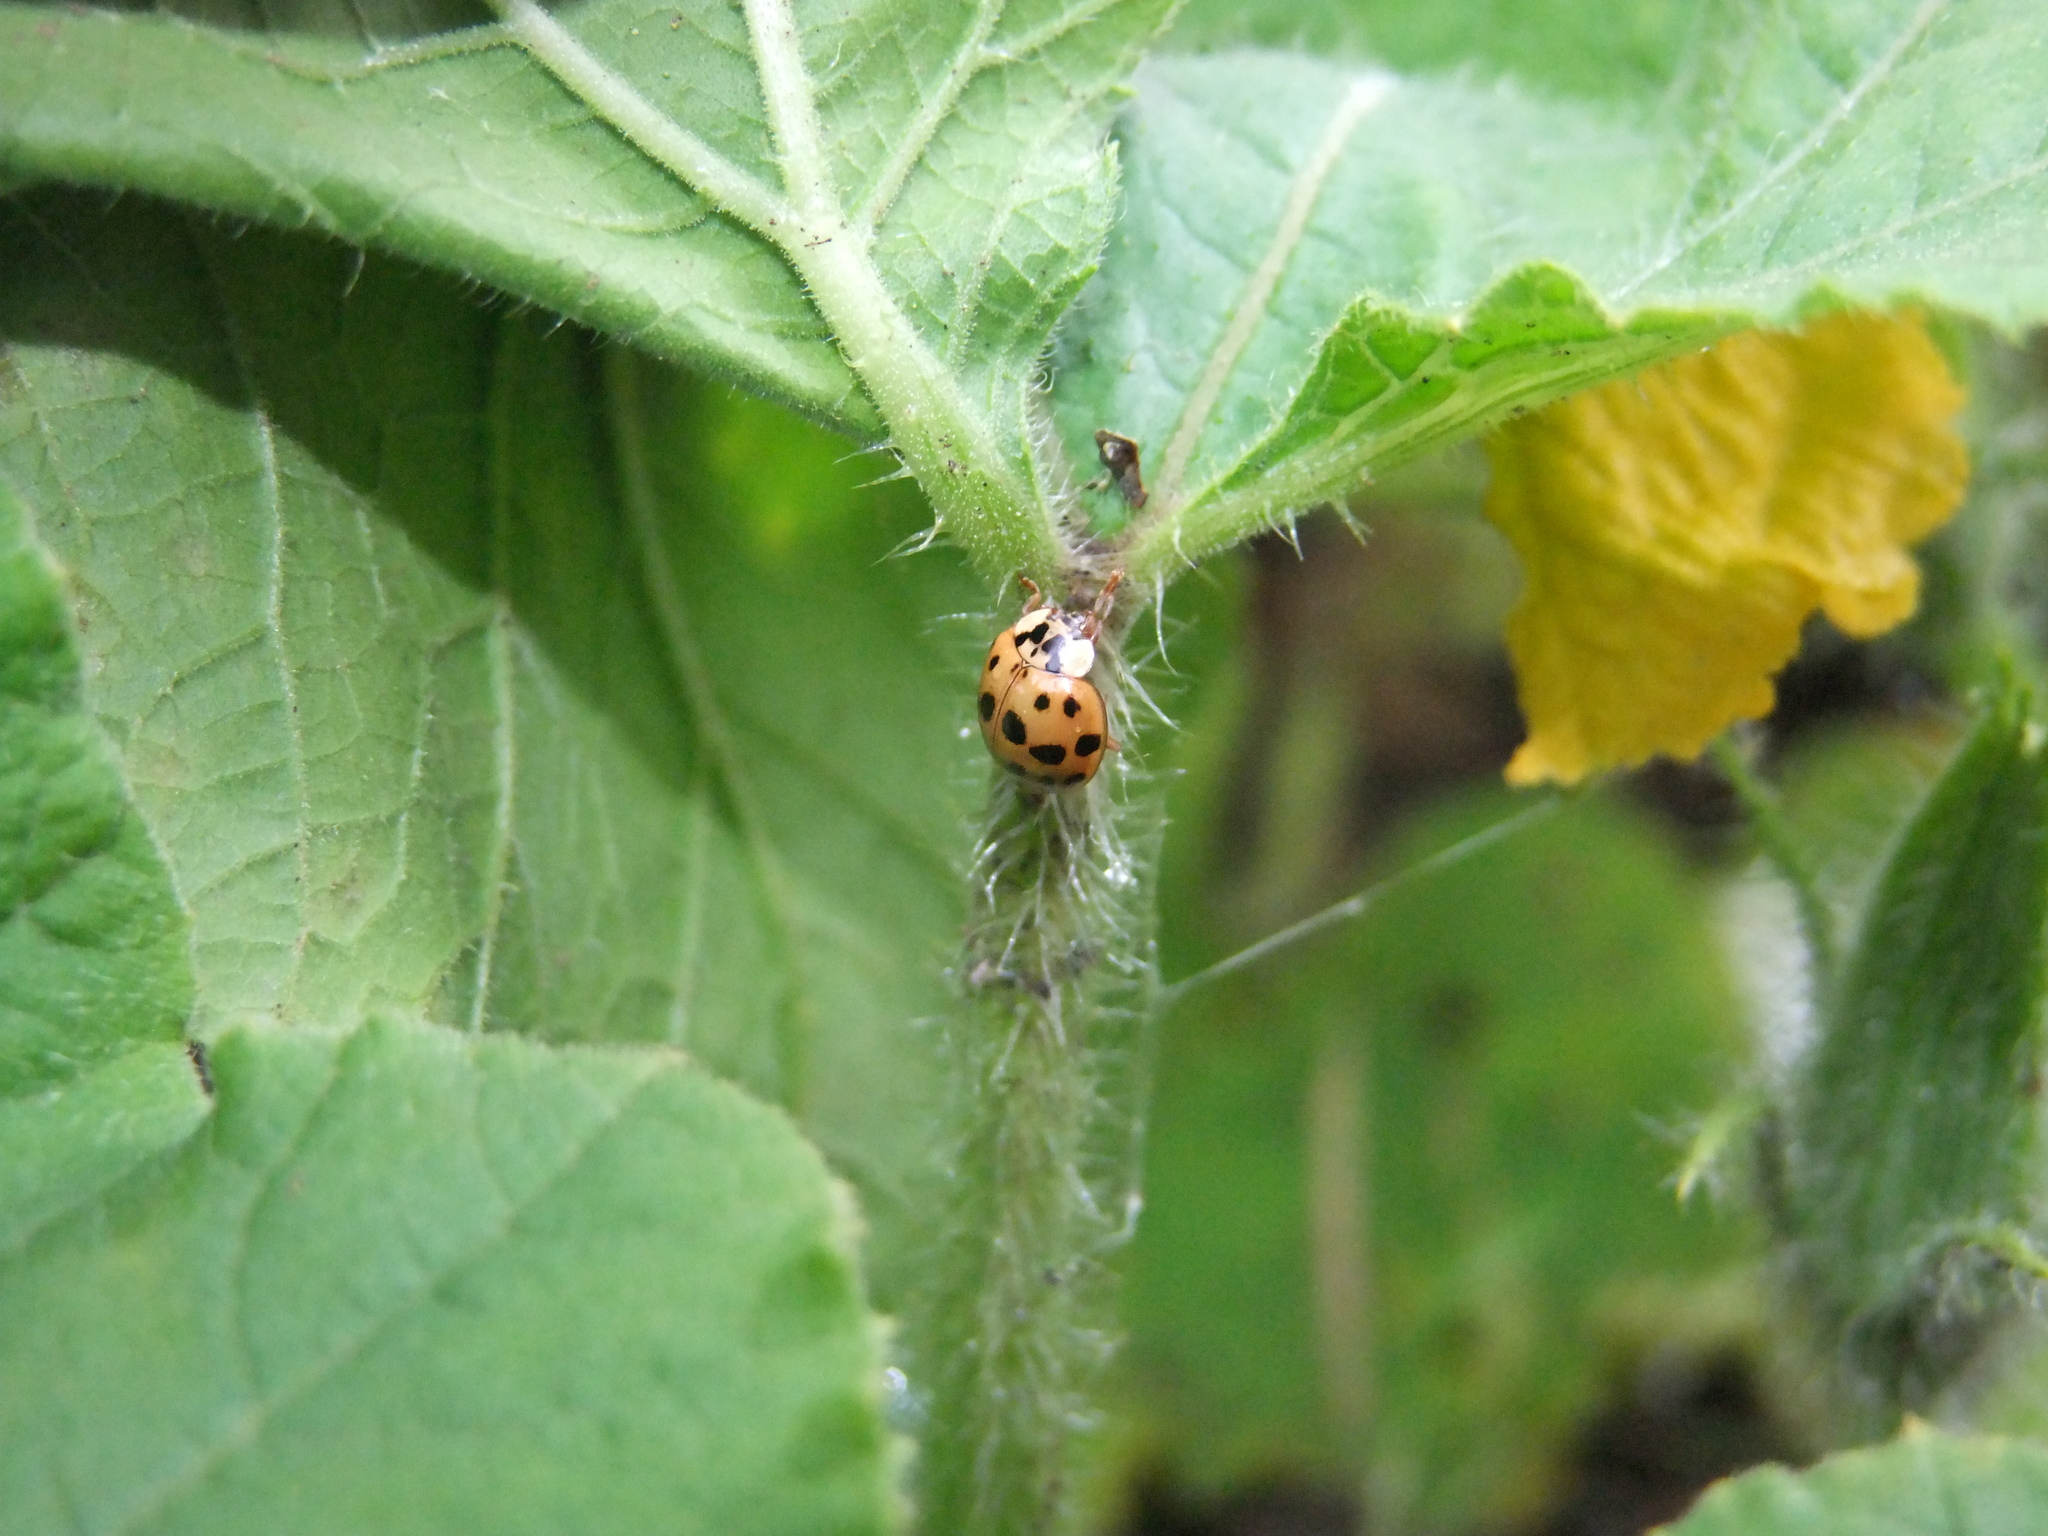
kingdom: Animalia
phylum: Arthropoda
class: Insecta
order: Coleoptera
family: Coccinellidae
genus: Harmonia
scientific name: Harmonia axyridis
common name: Harlequin ladybird
